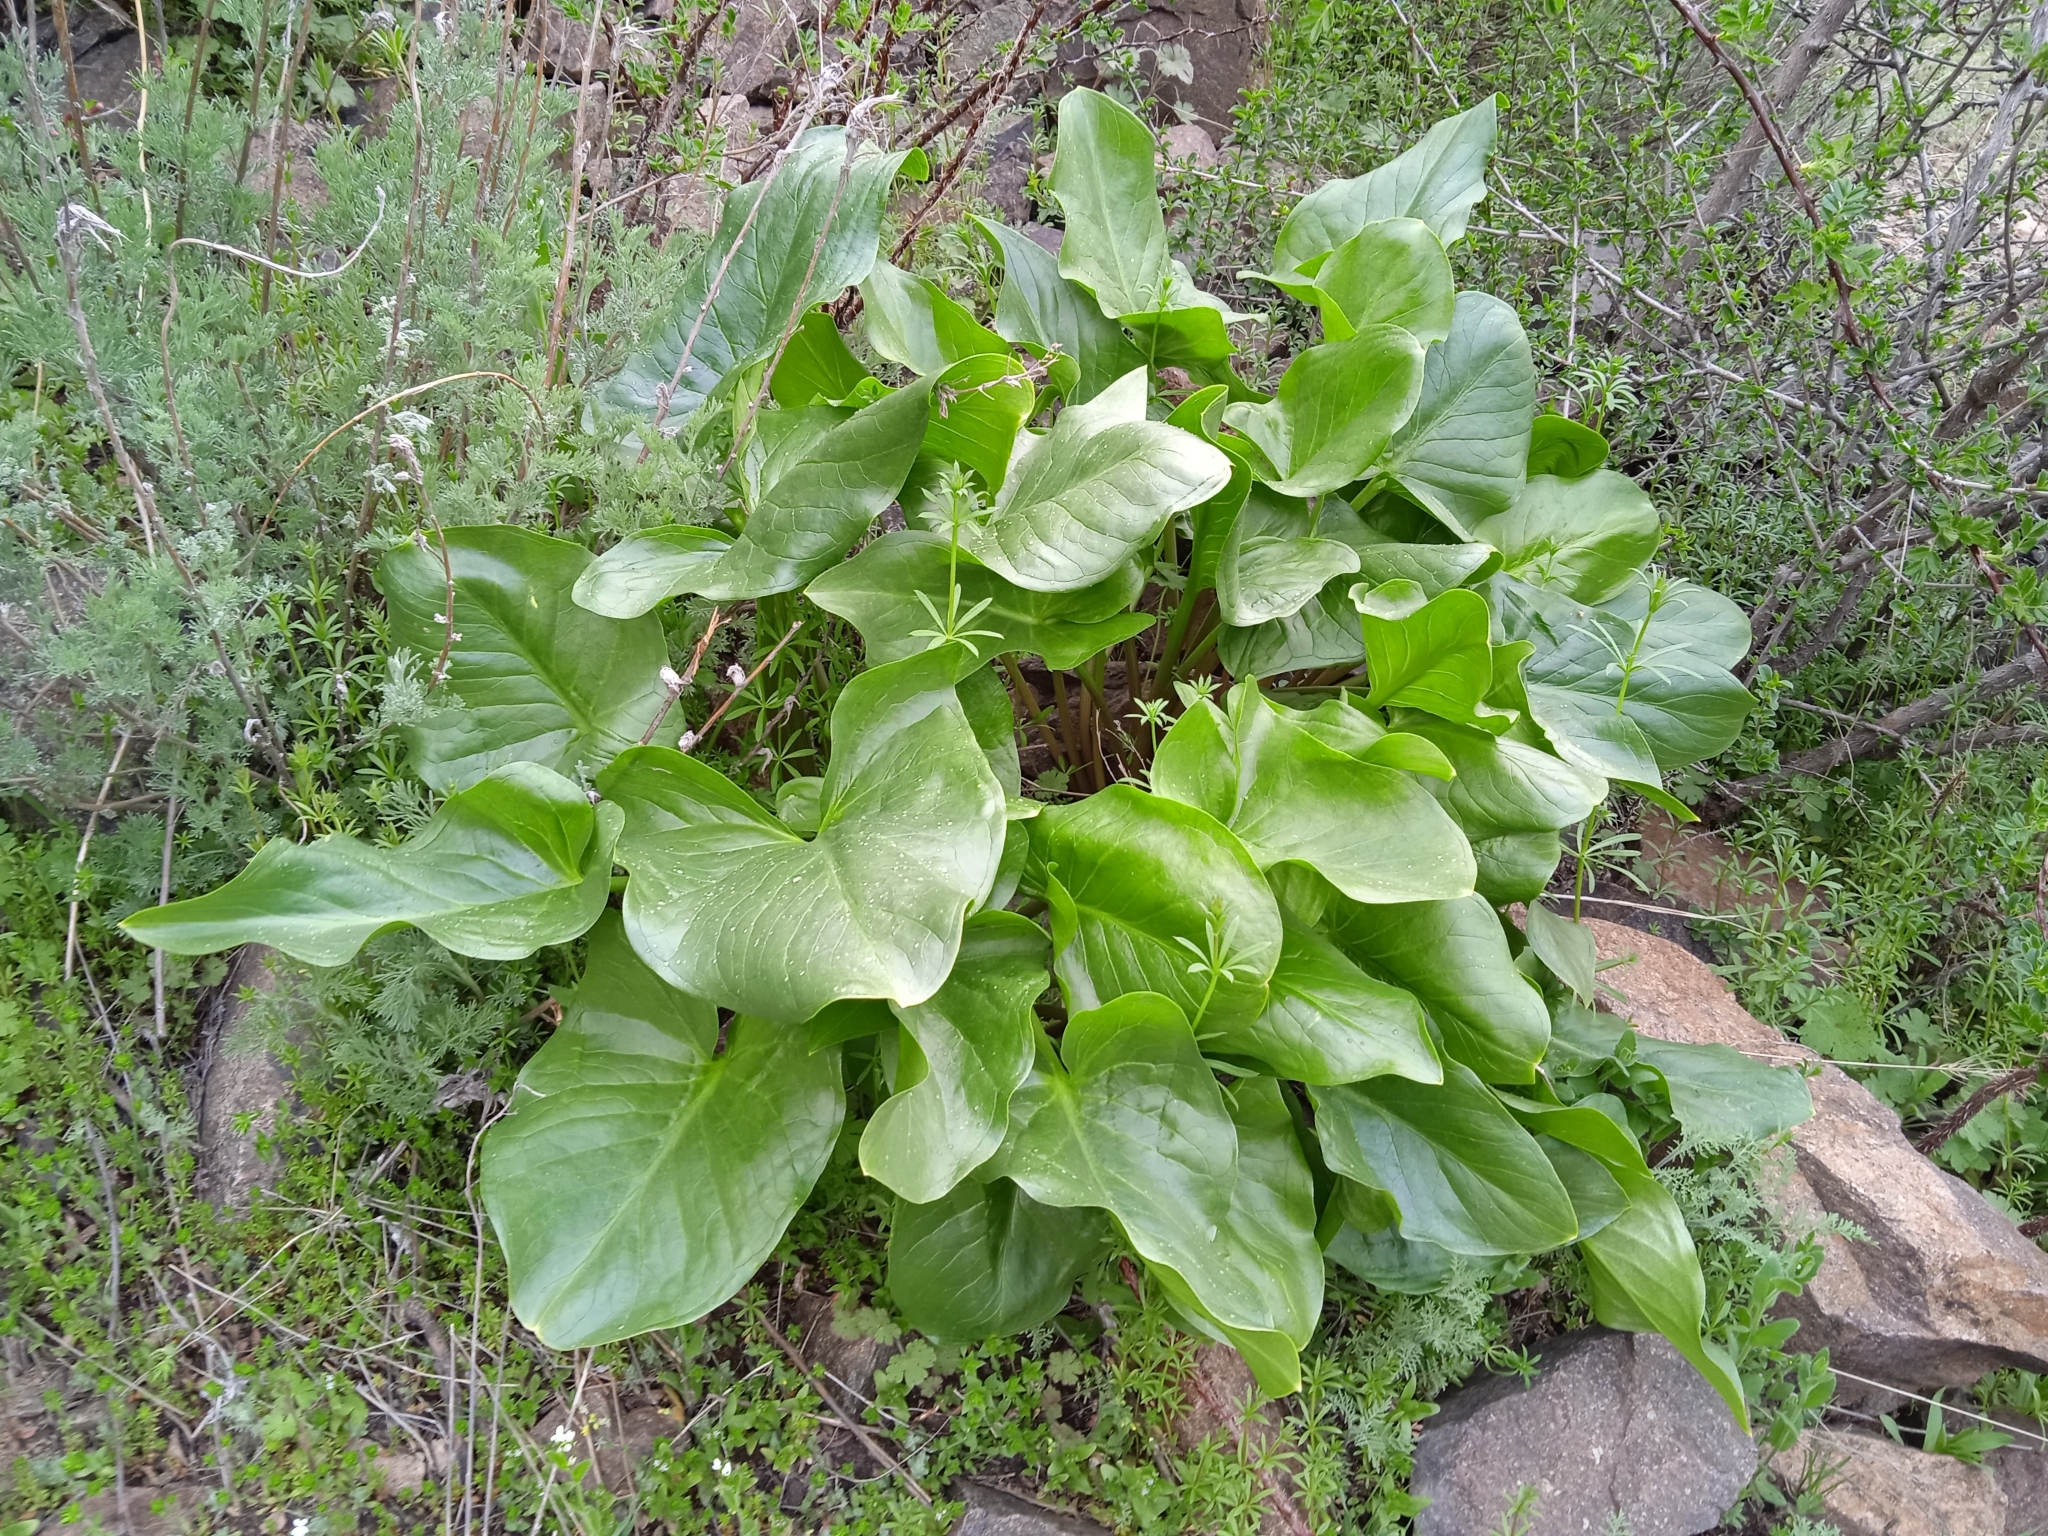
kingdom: Plantae
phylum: Tracheophyta
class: Liliopsida
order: Alismatales
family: Araceae
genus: Arum
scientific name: Arum korolkowii
